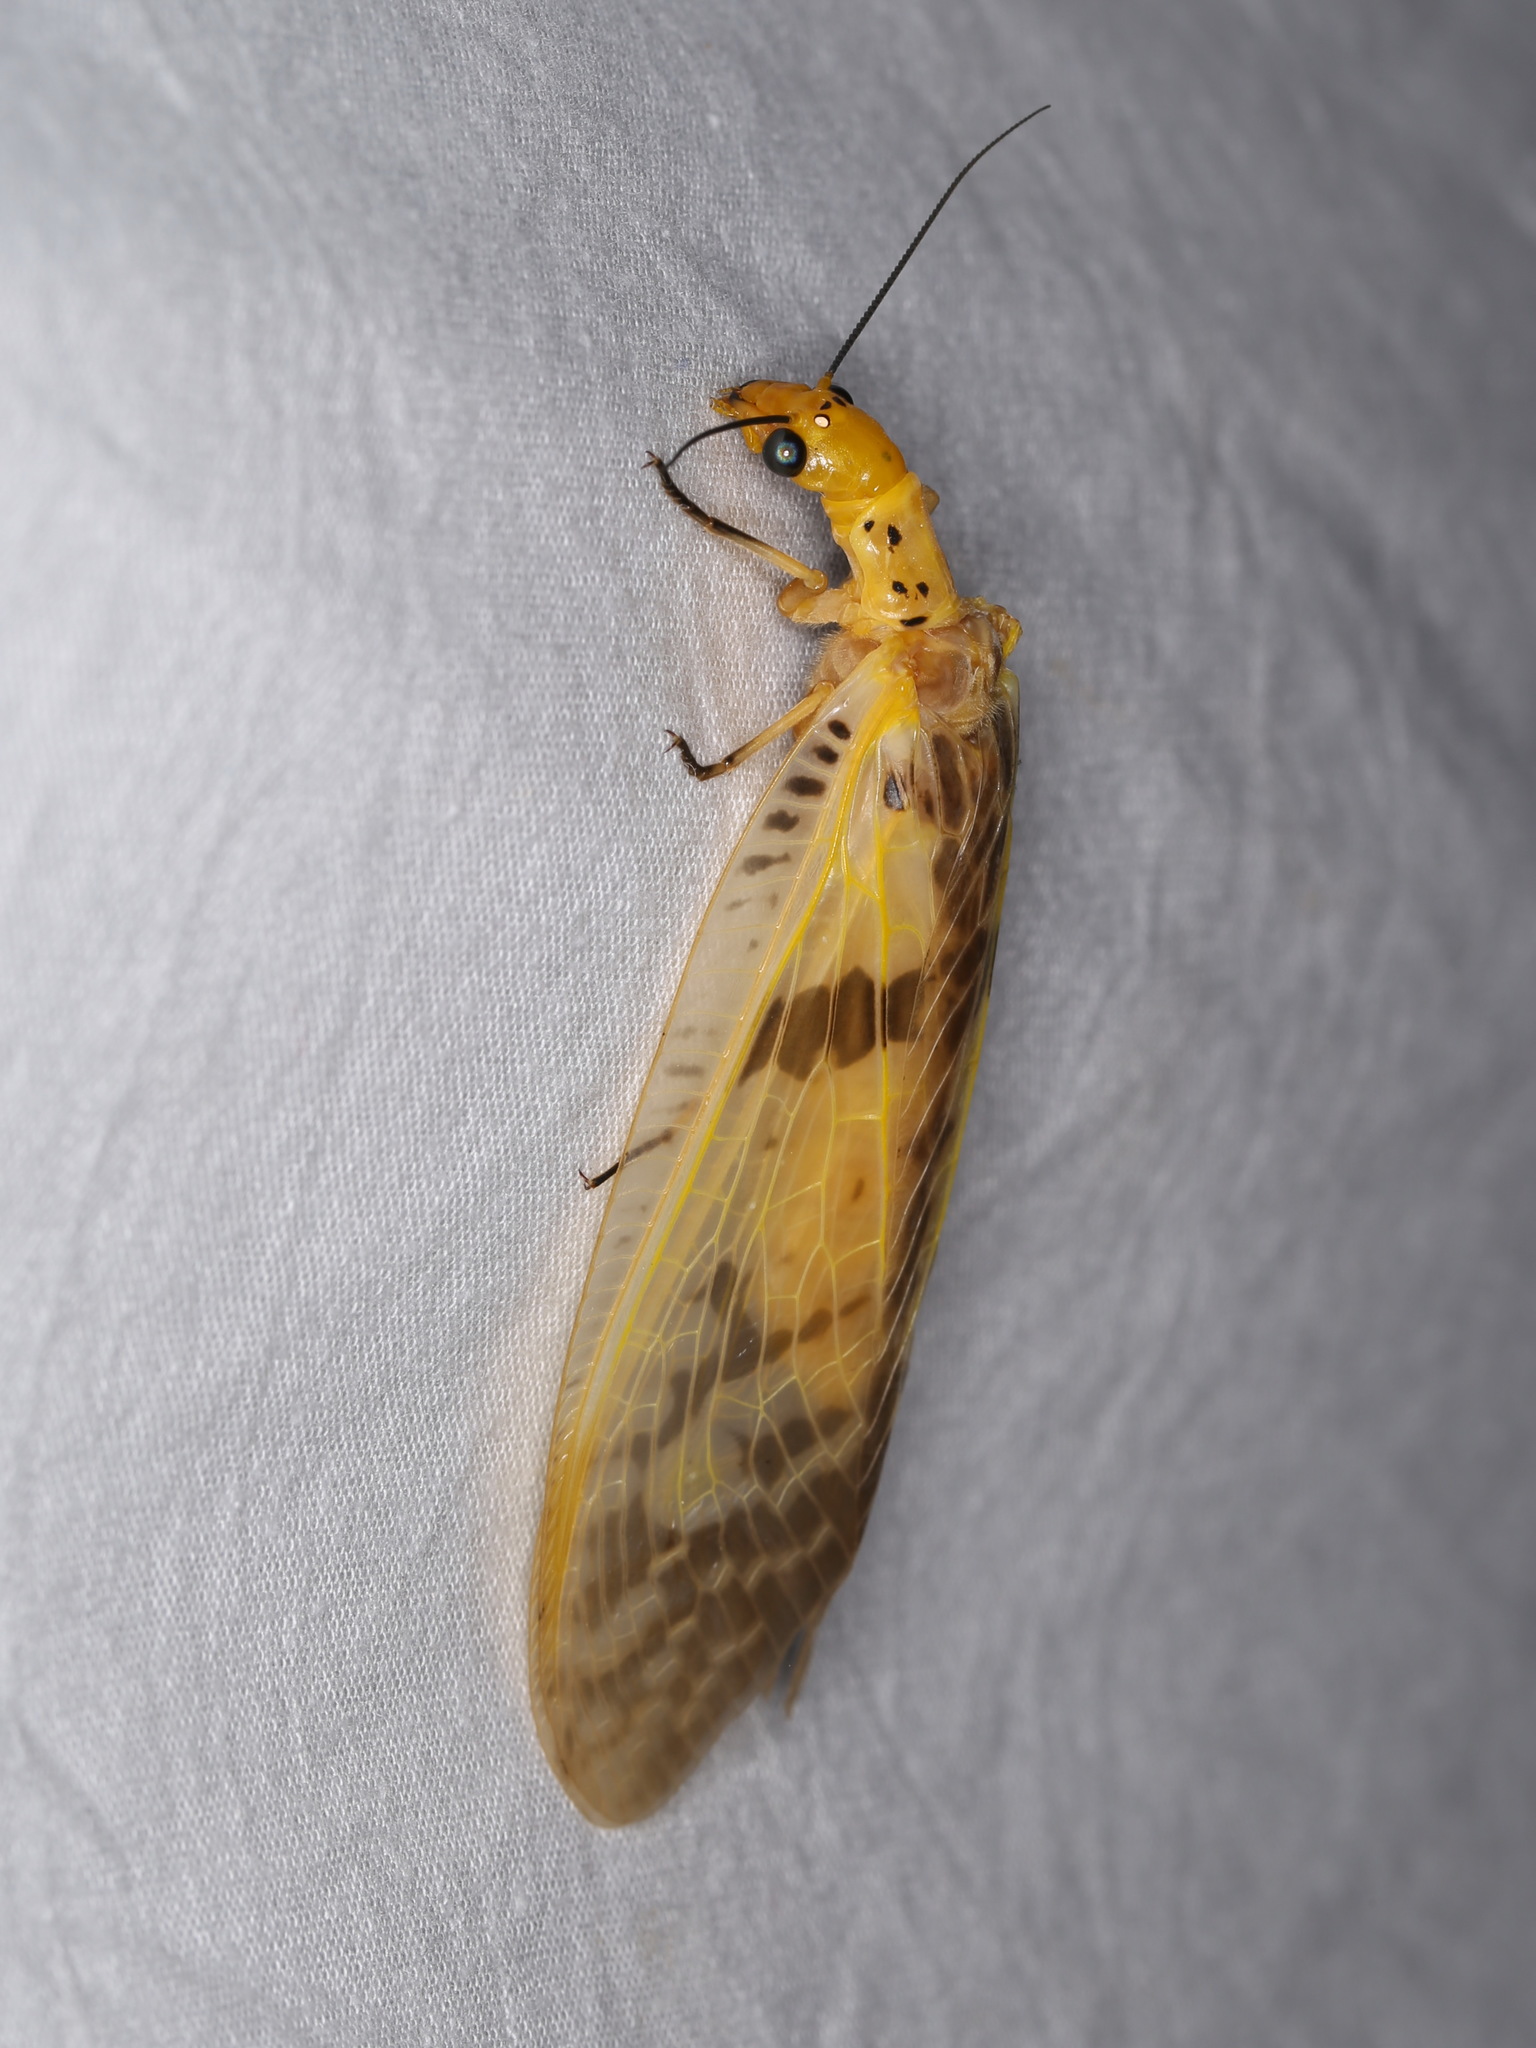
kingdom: Animalia
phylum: Arthropoda
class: Insecta
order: Megaloptera
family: Corydalidae
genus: Protohermes
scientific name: Protohermes stigmosus
